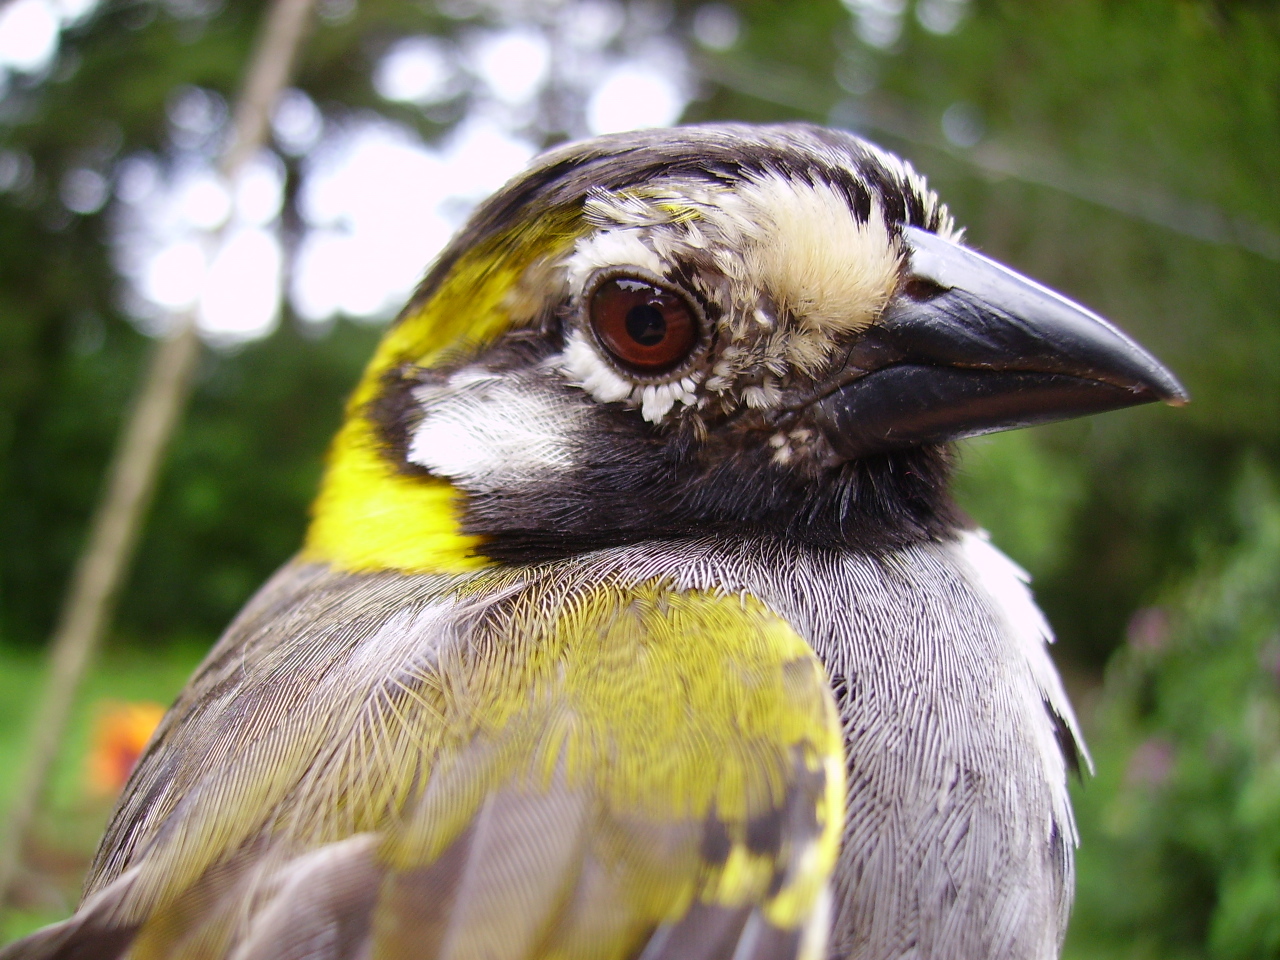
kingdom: Animalia
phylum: Chordata
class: Aves
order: Passeriformes
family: Passerellidae
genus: Melozone
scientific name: Melozone leucotis
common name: White-eared ground-sparrow
